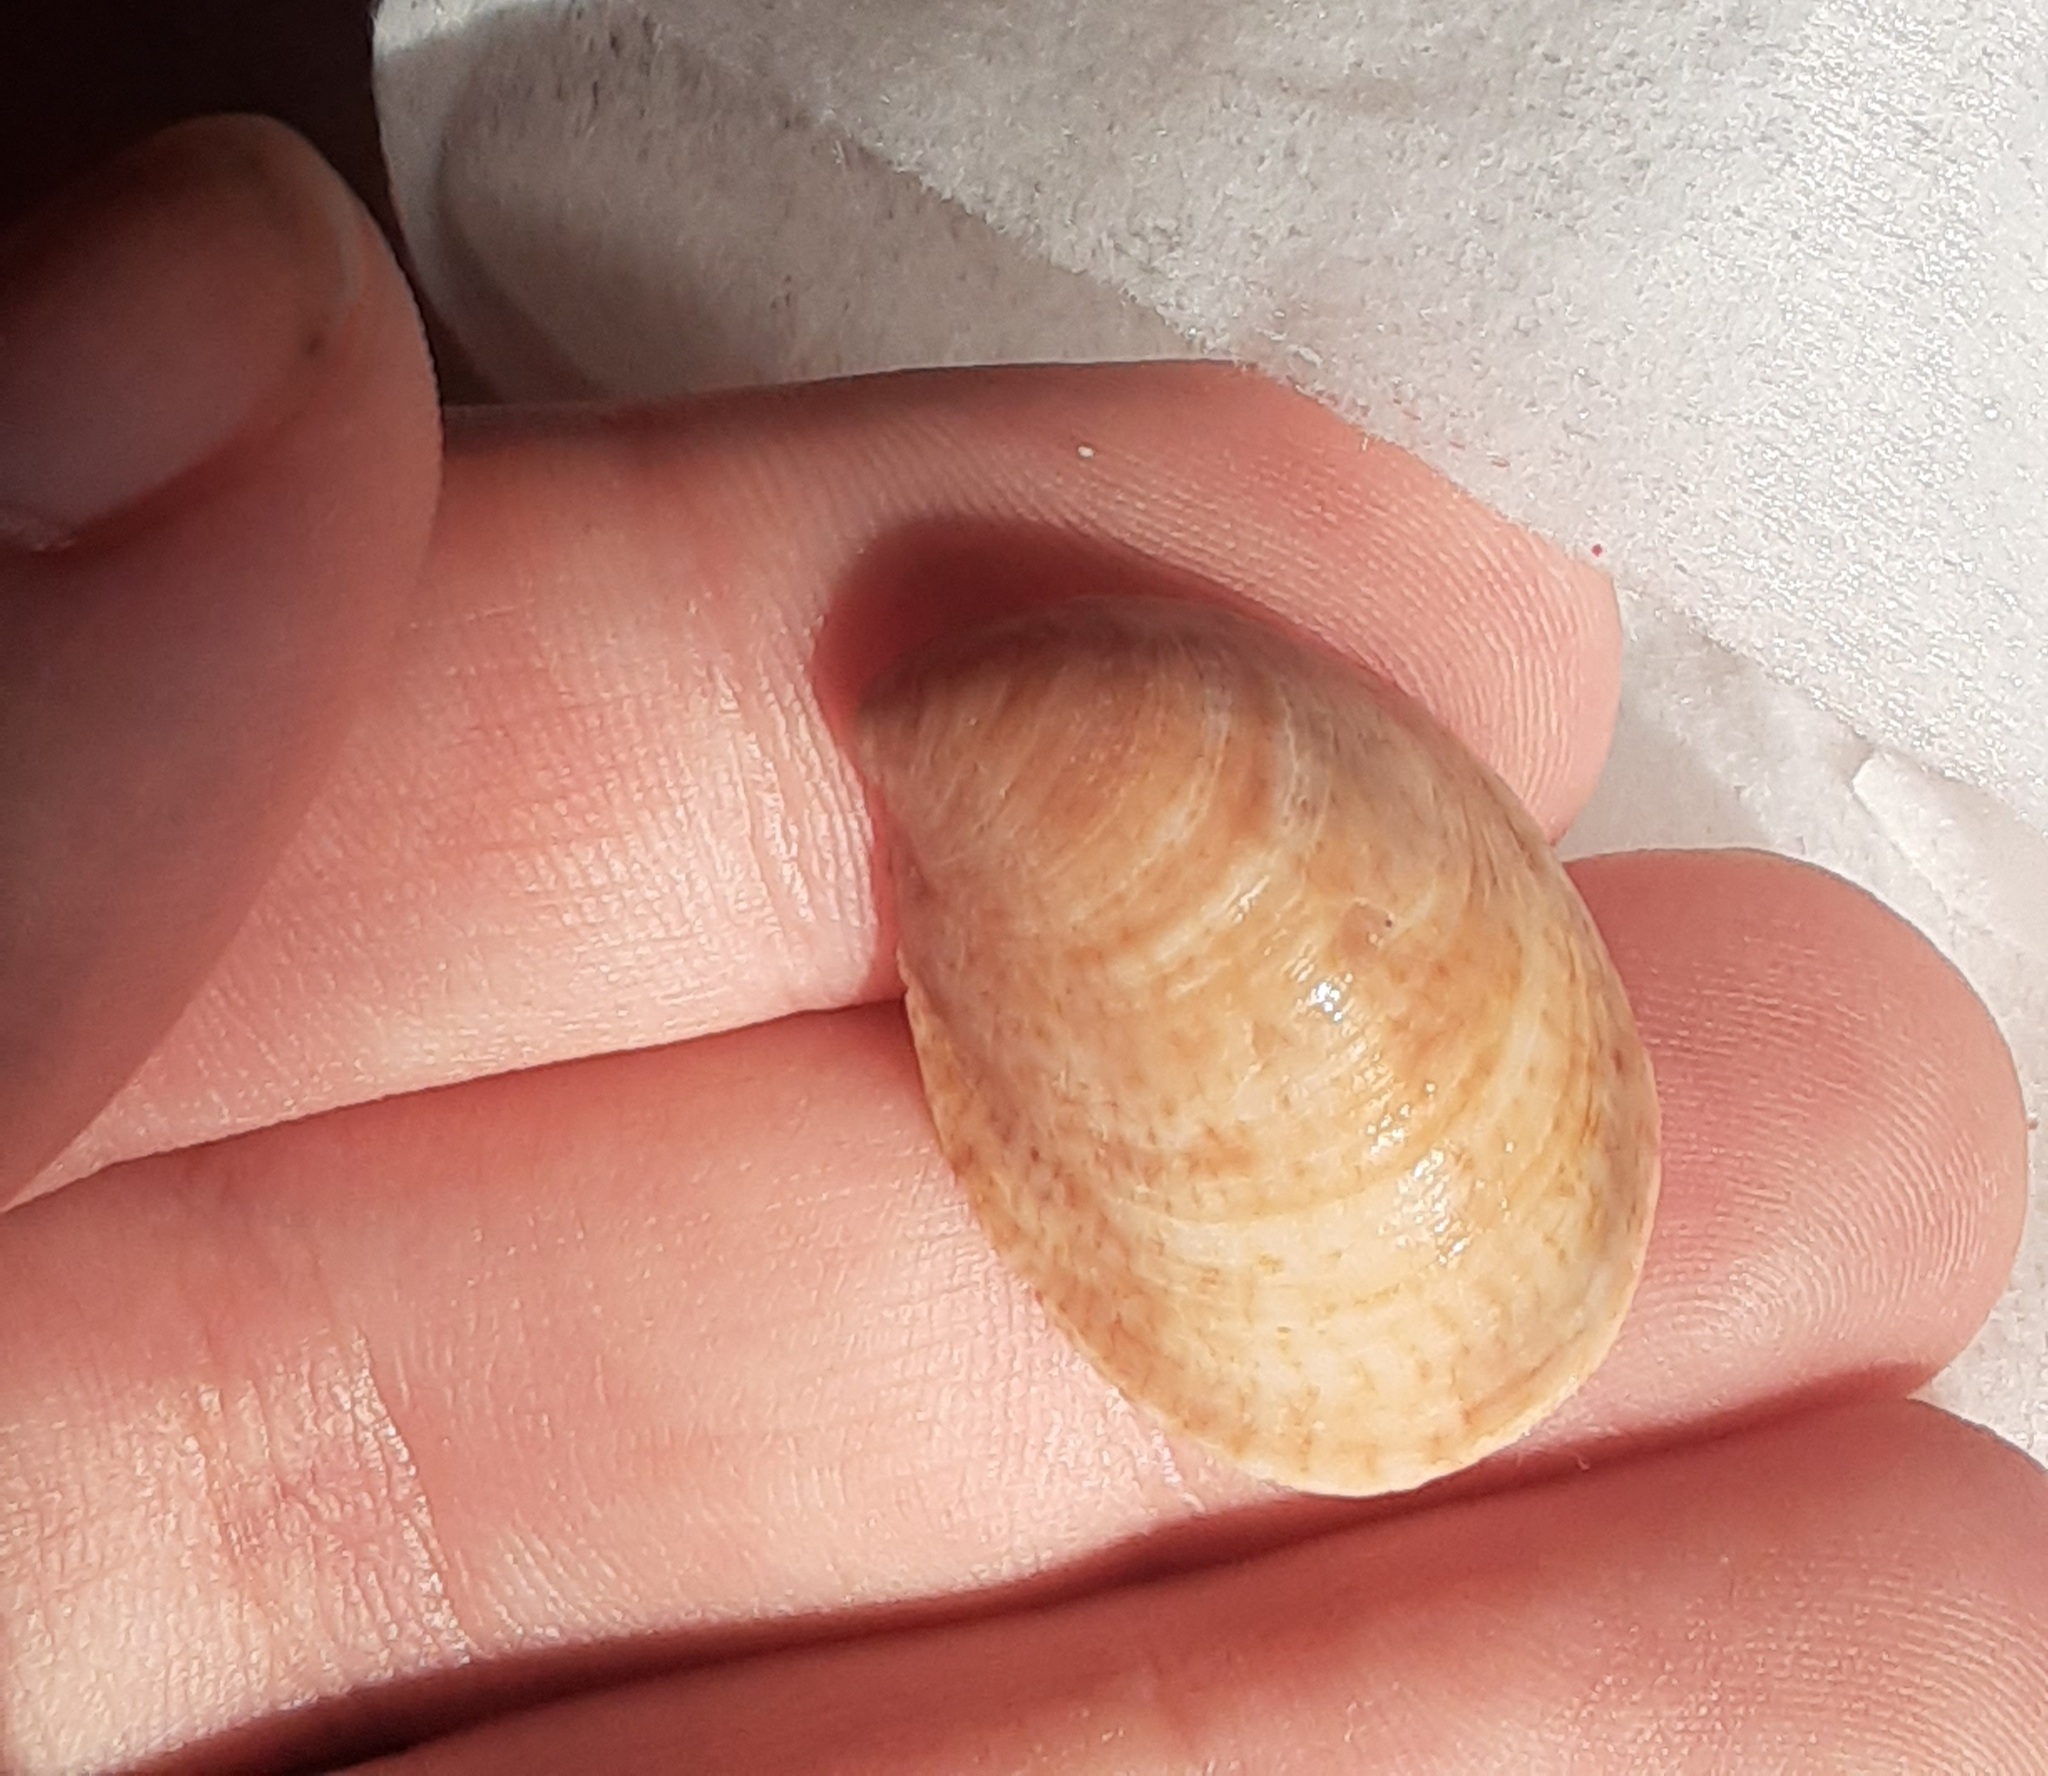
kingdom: Animalia
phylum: Mollusca
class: Gastropoda
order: Littorinimorpha
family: Calyptraeidae
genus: Crepidula
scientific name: Crepidula fornicata
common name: Slipper limpet
